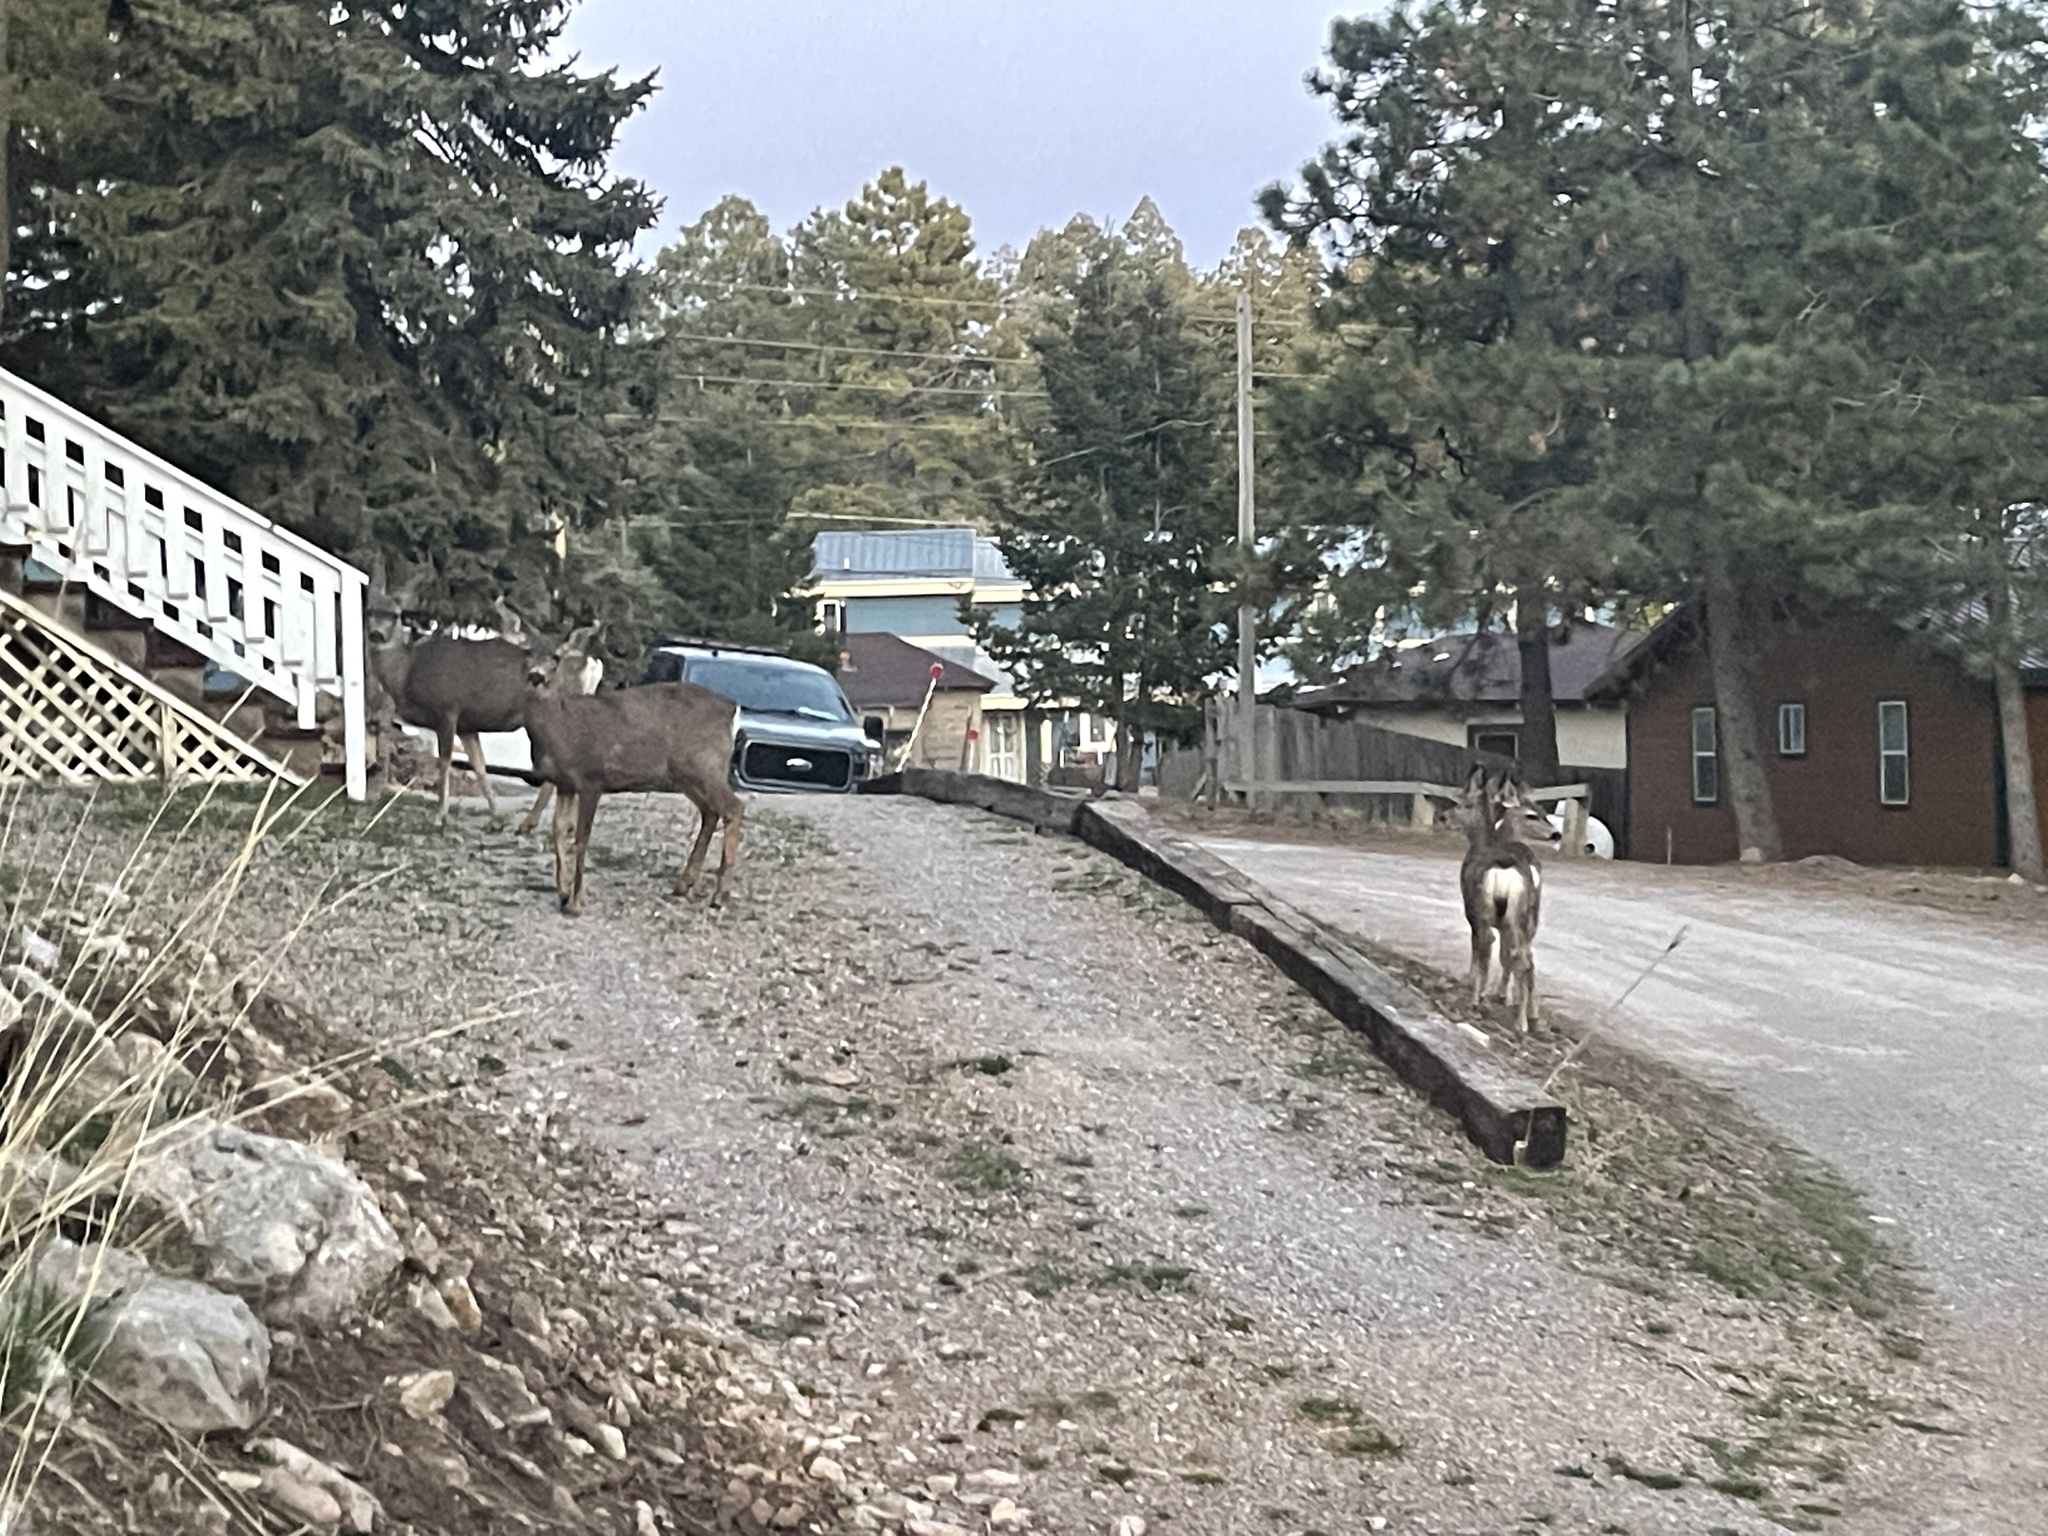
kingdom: Animalia
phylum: Chordata
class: Mammalia
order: Artiodactyla
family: Cervidae
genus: Odocoileus
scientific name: Odocoileus hemionus
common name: Mule deer
